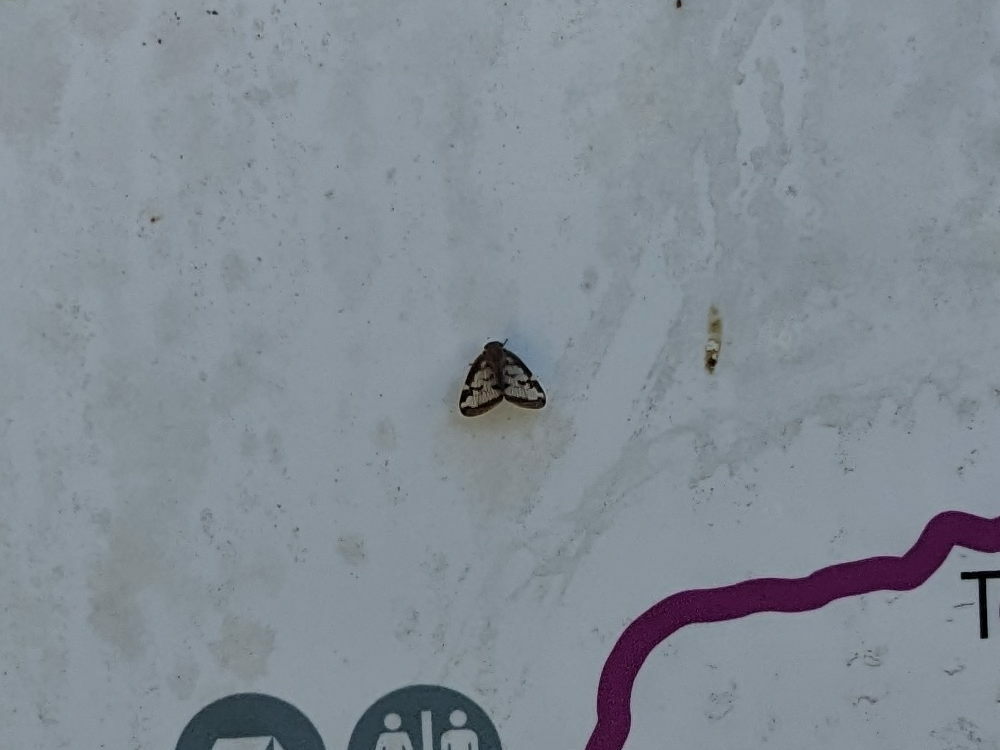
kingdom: Animalia
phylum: Arthropoda
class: Insecta
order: Hemiptera
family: Ricaniidae
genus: Scolypopa
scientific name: Scolypopa australis
